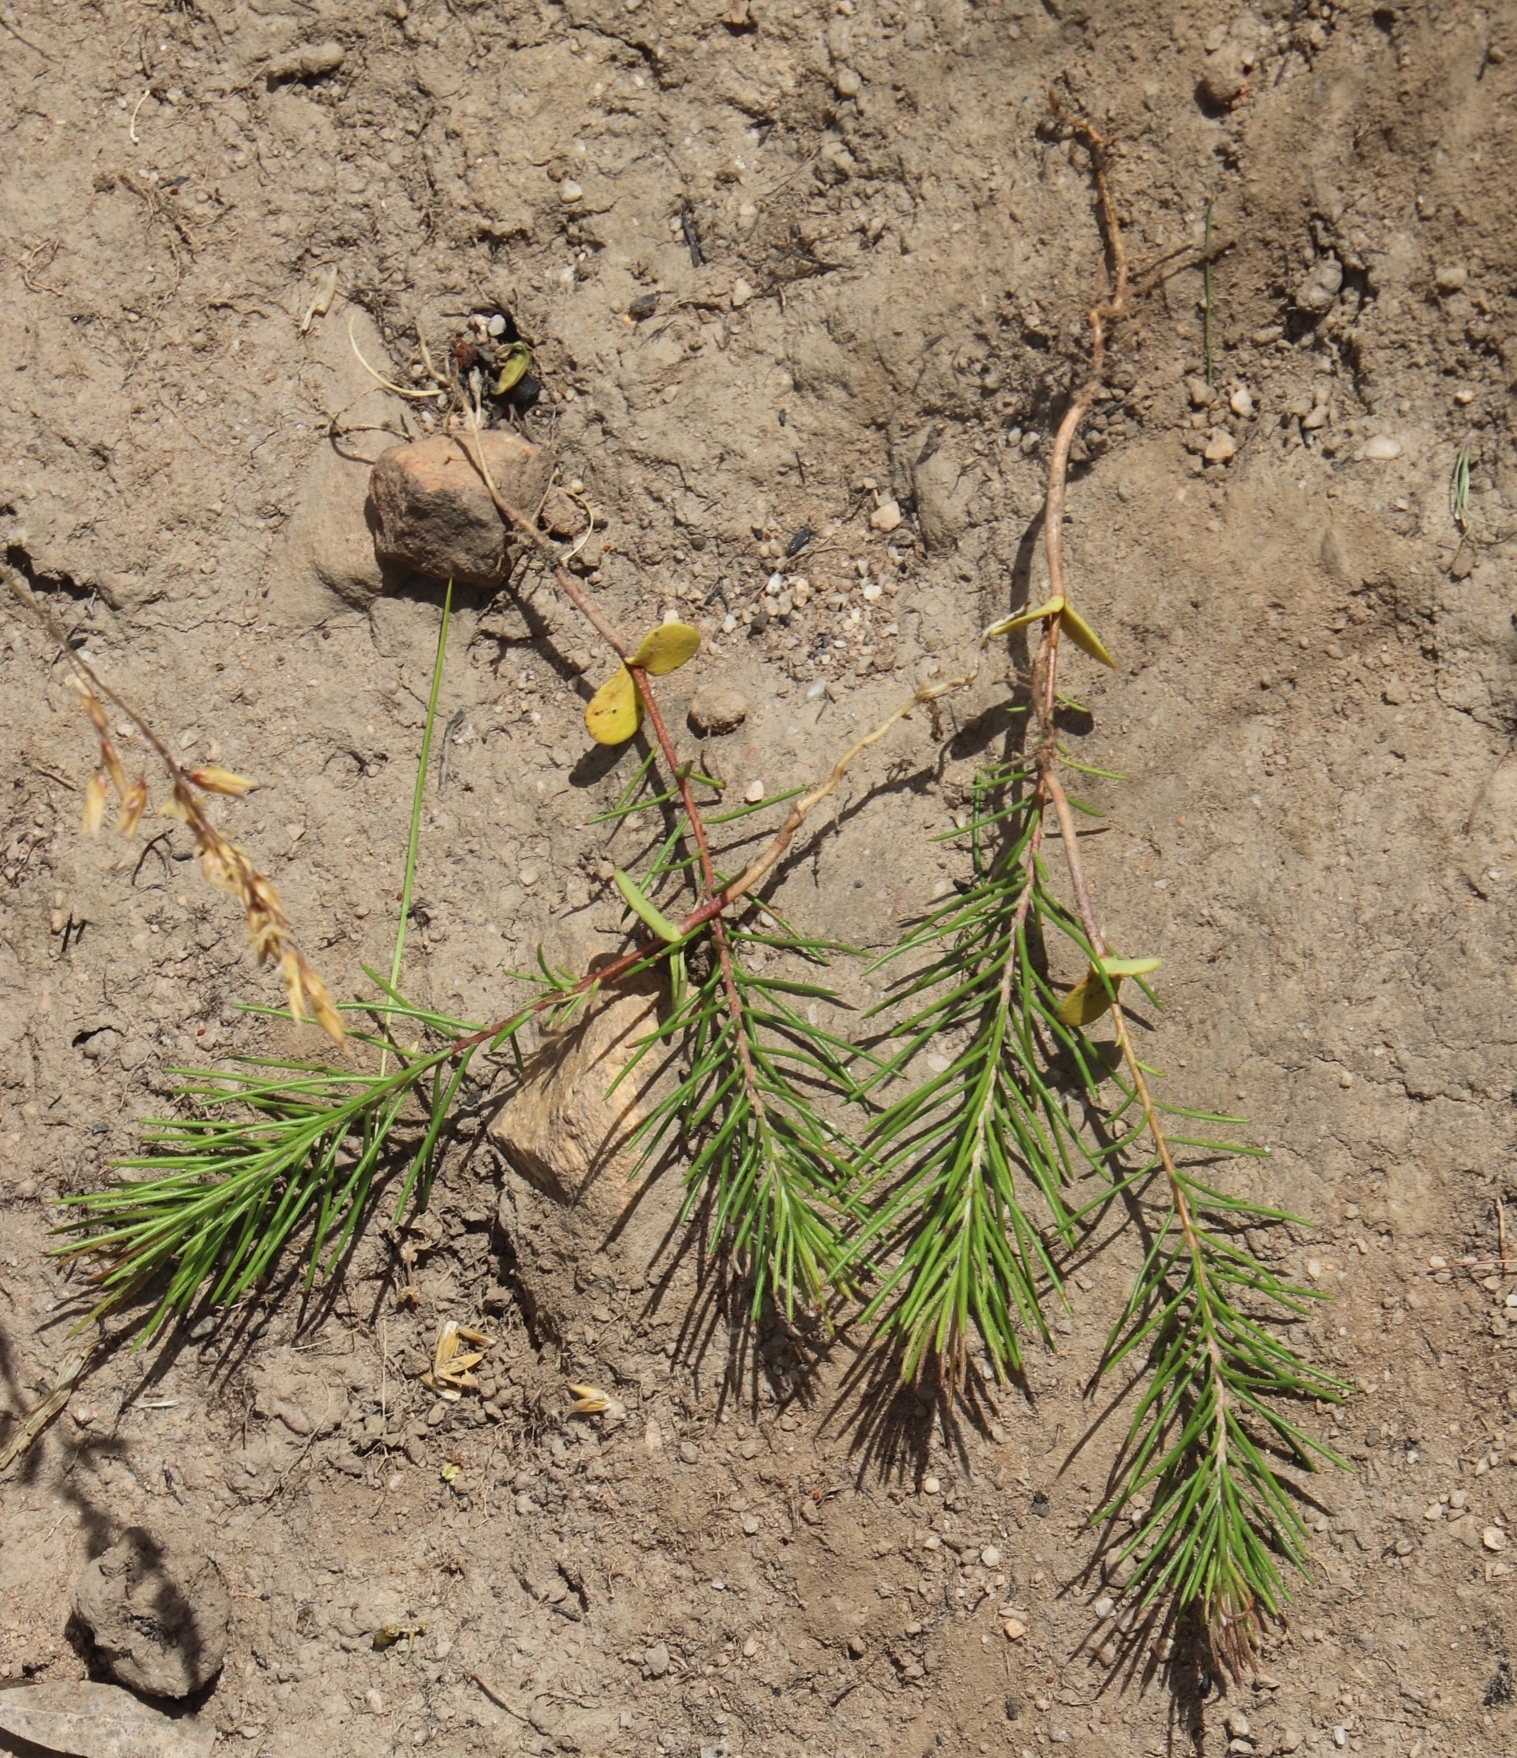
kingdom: Plantae
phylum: Tracheophyta
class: Magnoliopsida
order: Proteales
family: Proteaceae
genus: Hakea
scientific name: Hakea sericea
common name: Needle bush
